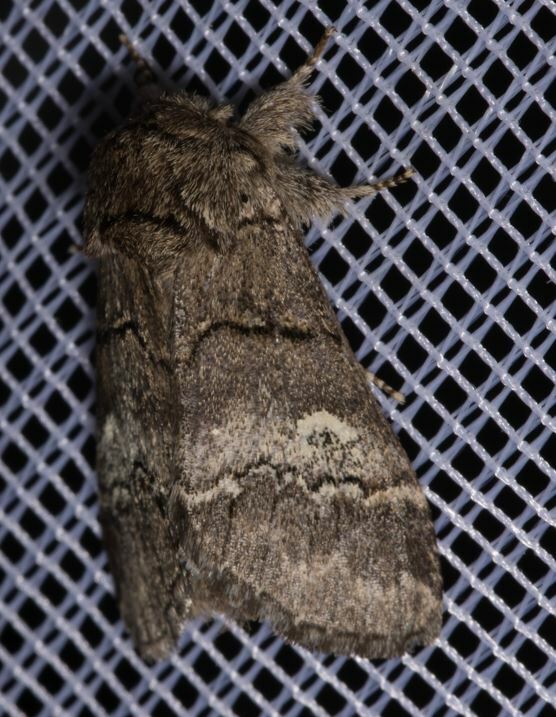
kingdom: Animalia
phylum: Arthropoda
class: Insecta
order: Lepidoptera
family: Notodontidae
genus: Drymonia
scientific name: Drymonia querna
